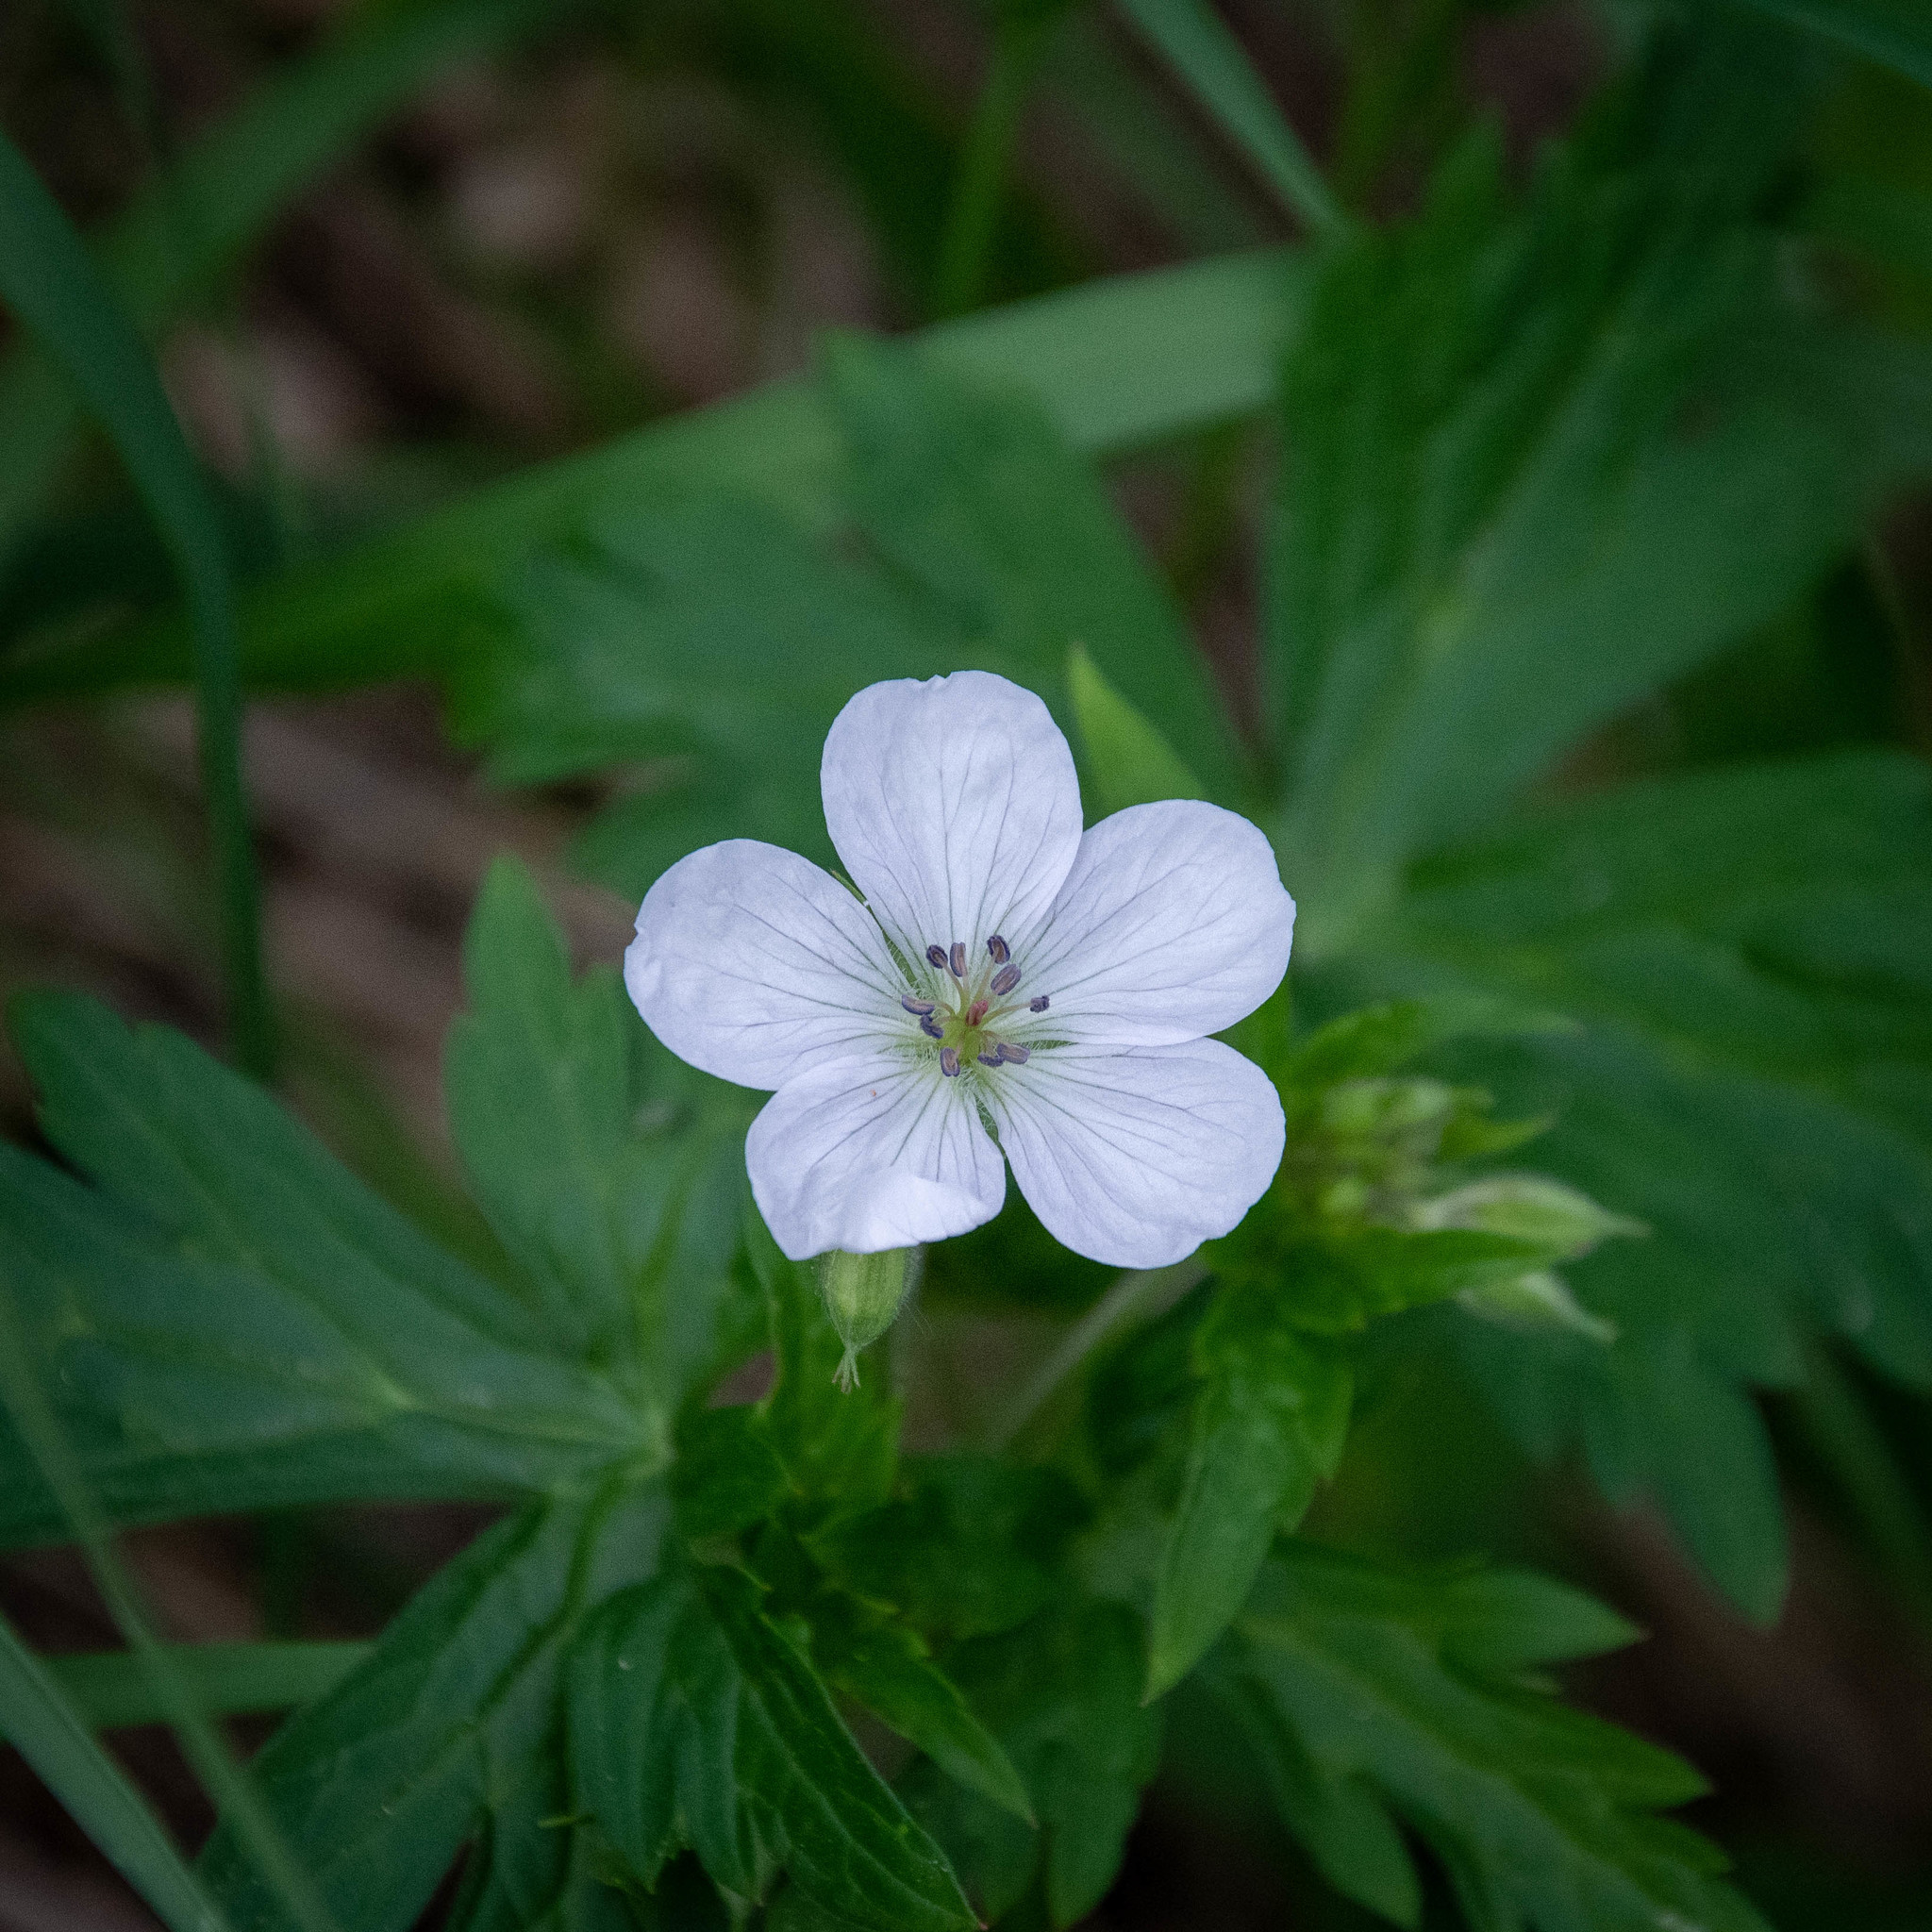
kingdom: Plantae
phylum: Tracheophyta
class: Magnoliopsida
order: Geraniales
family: Geraniaceae
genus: Geranium
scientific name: Geranium richardsonii
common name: Richardson's crane's-bill
